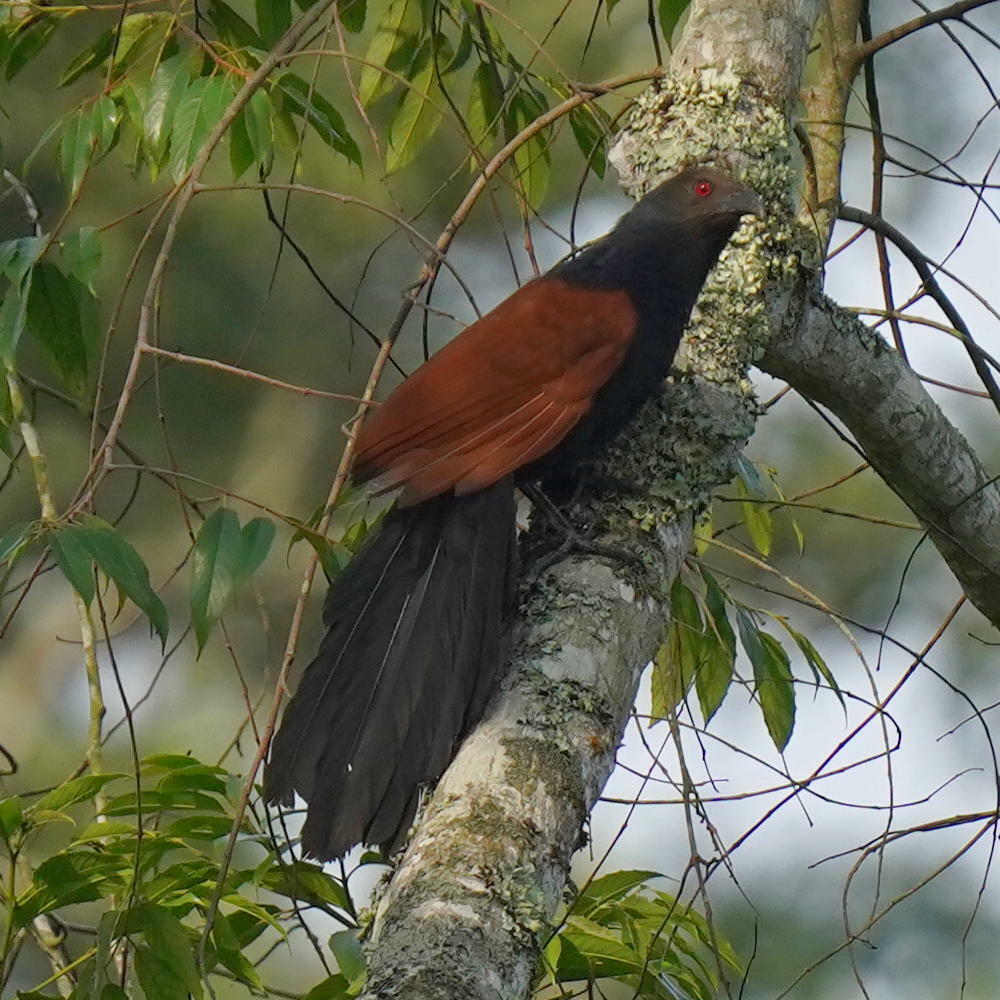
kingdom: Animalia
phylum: Chordata
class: Aves
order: Cuculiformes
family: Cuculidae
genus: Centropus
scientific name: Centropus sinensis
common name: Greater coucal
